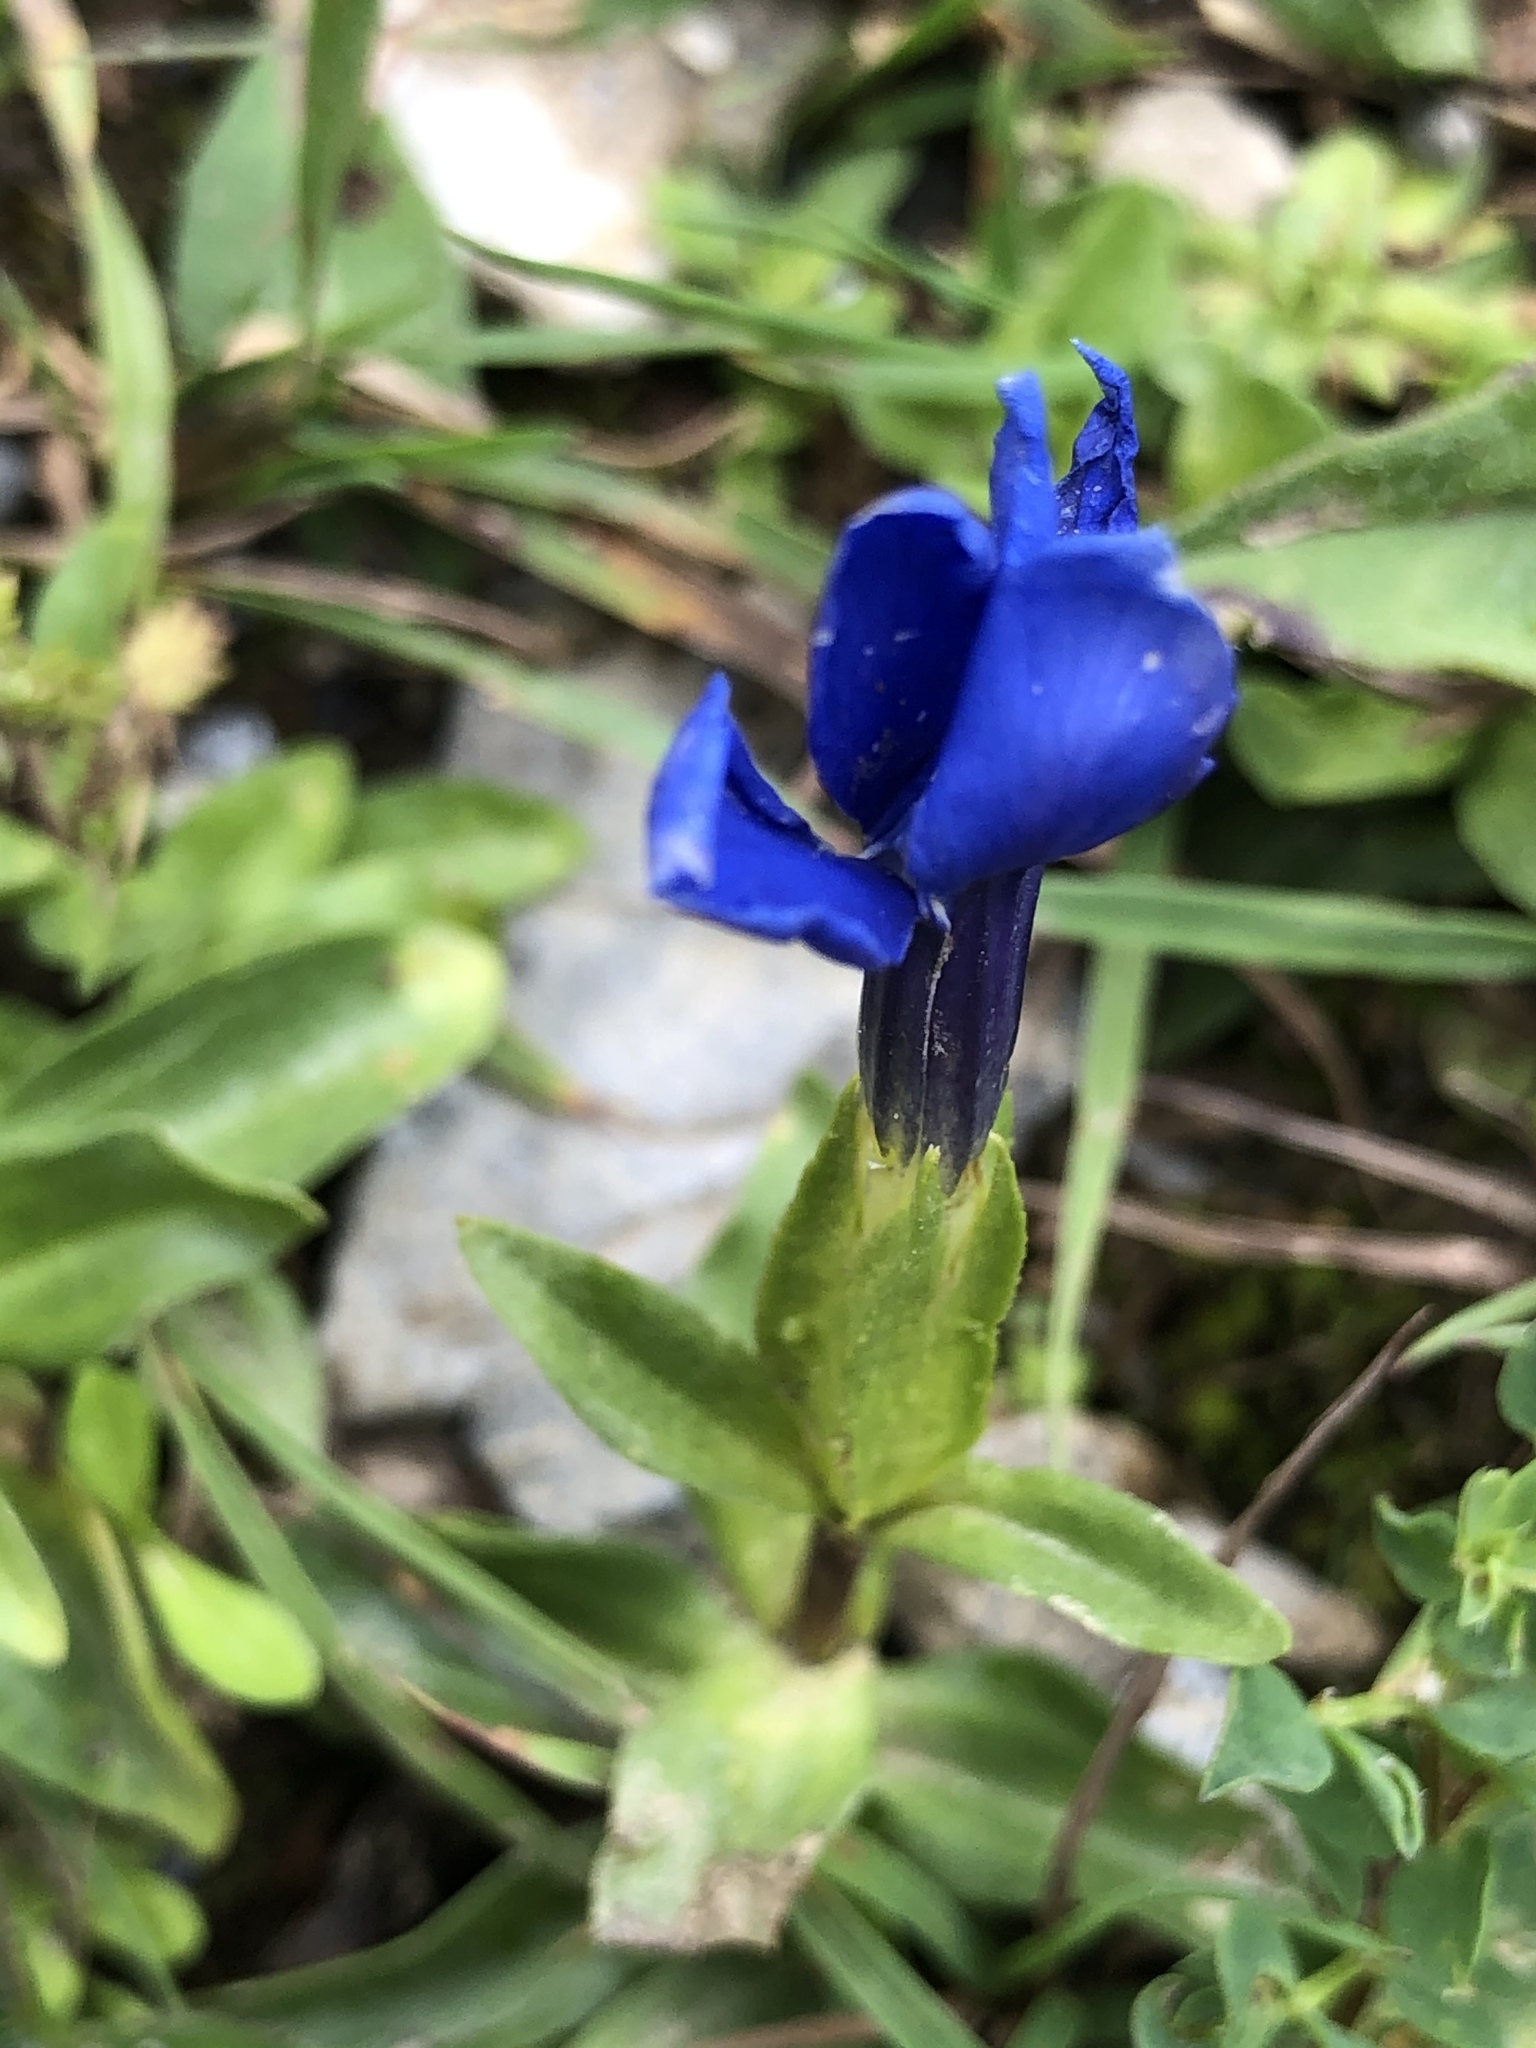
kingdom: Plantae
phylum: Tracheophyta
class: Magnoliopsida
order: Gentianales
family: Gentianaceae
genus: Gentiana
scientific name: Gentiana verna
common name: Spring gentian
